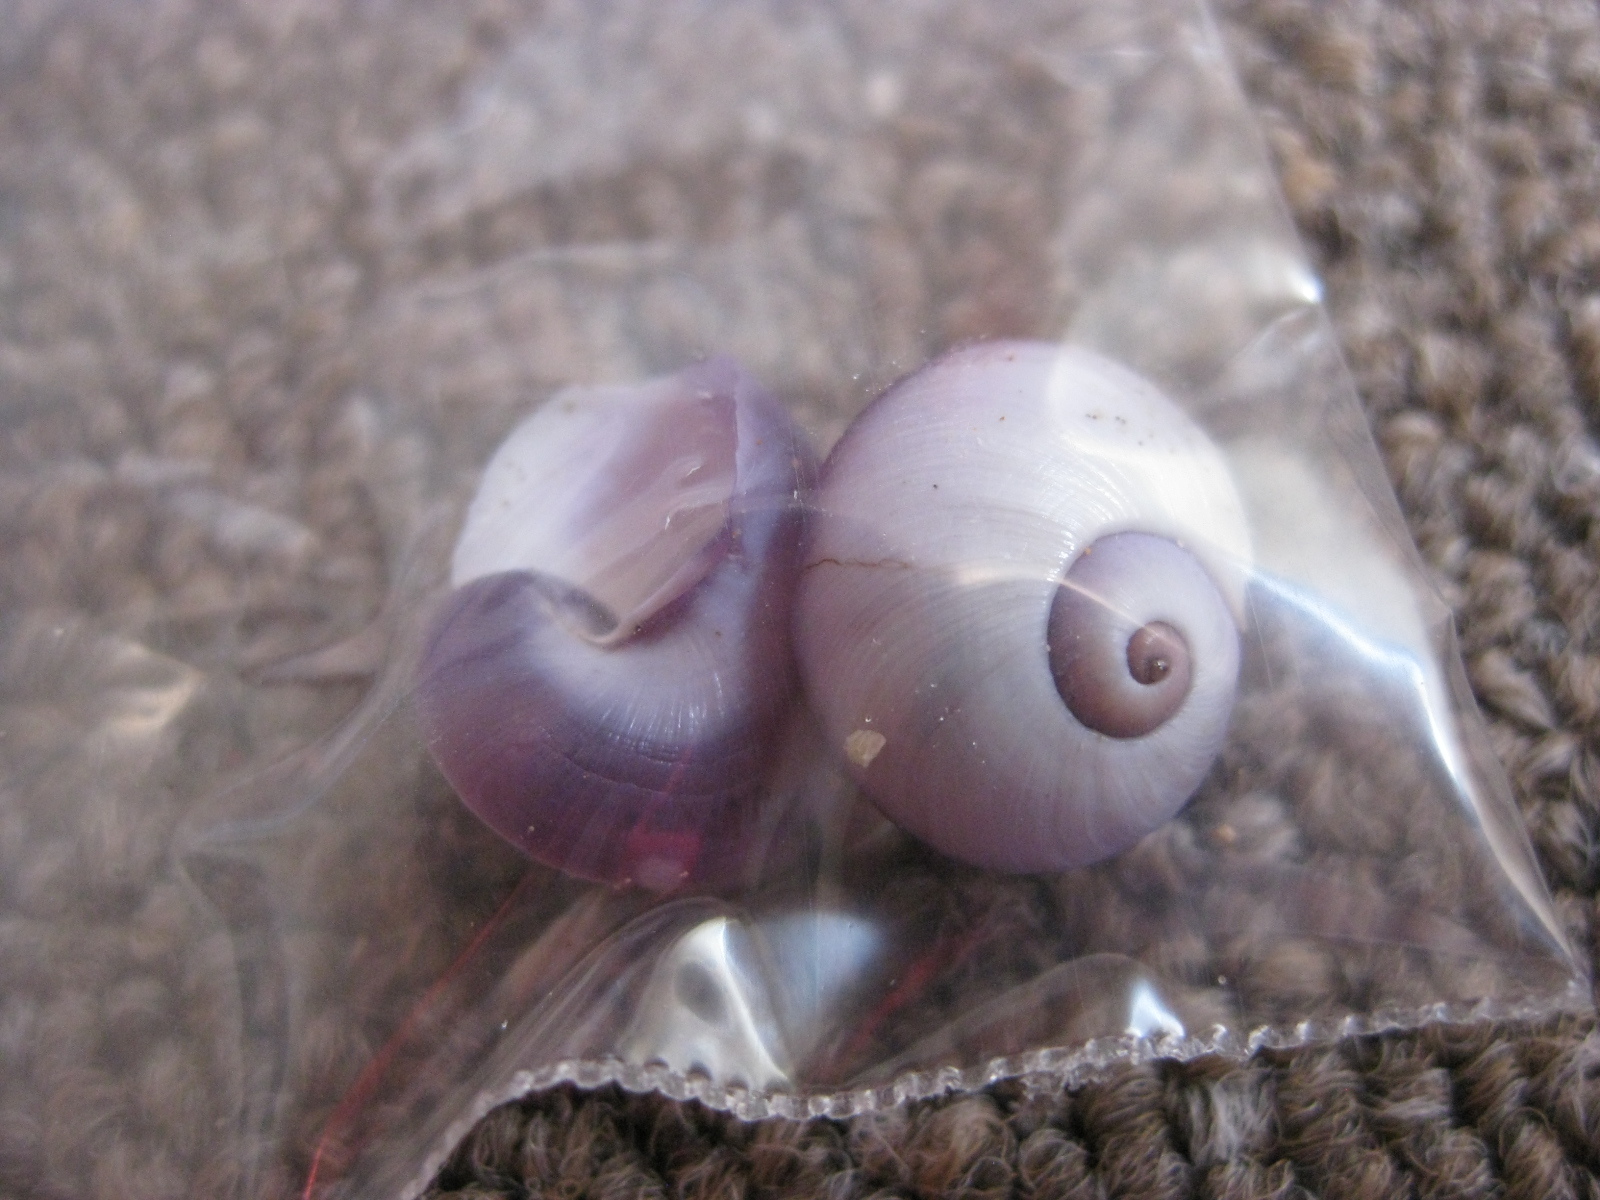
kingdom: Animalia
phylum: Mollusca
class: Gastropoda
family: Epitoniidae
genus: Janthina
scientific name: Janthina janthina
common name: Common janthina
